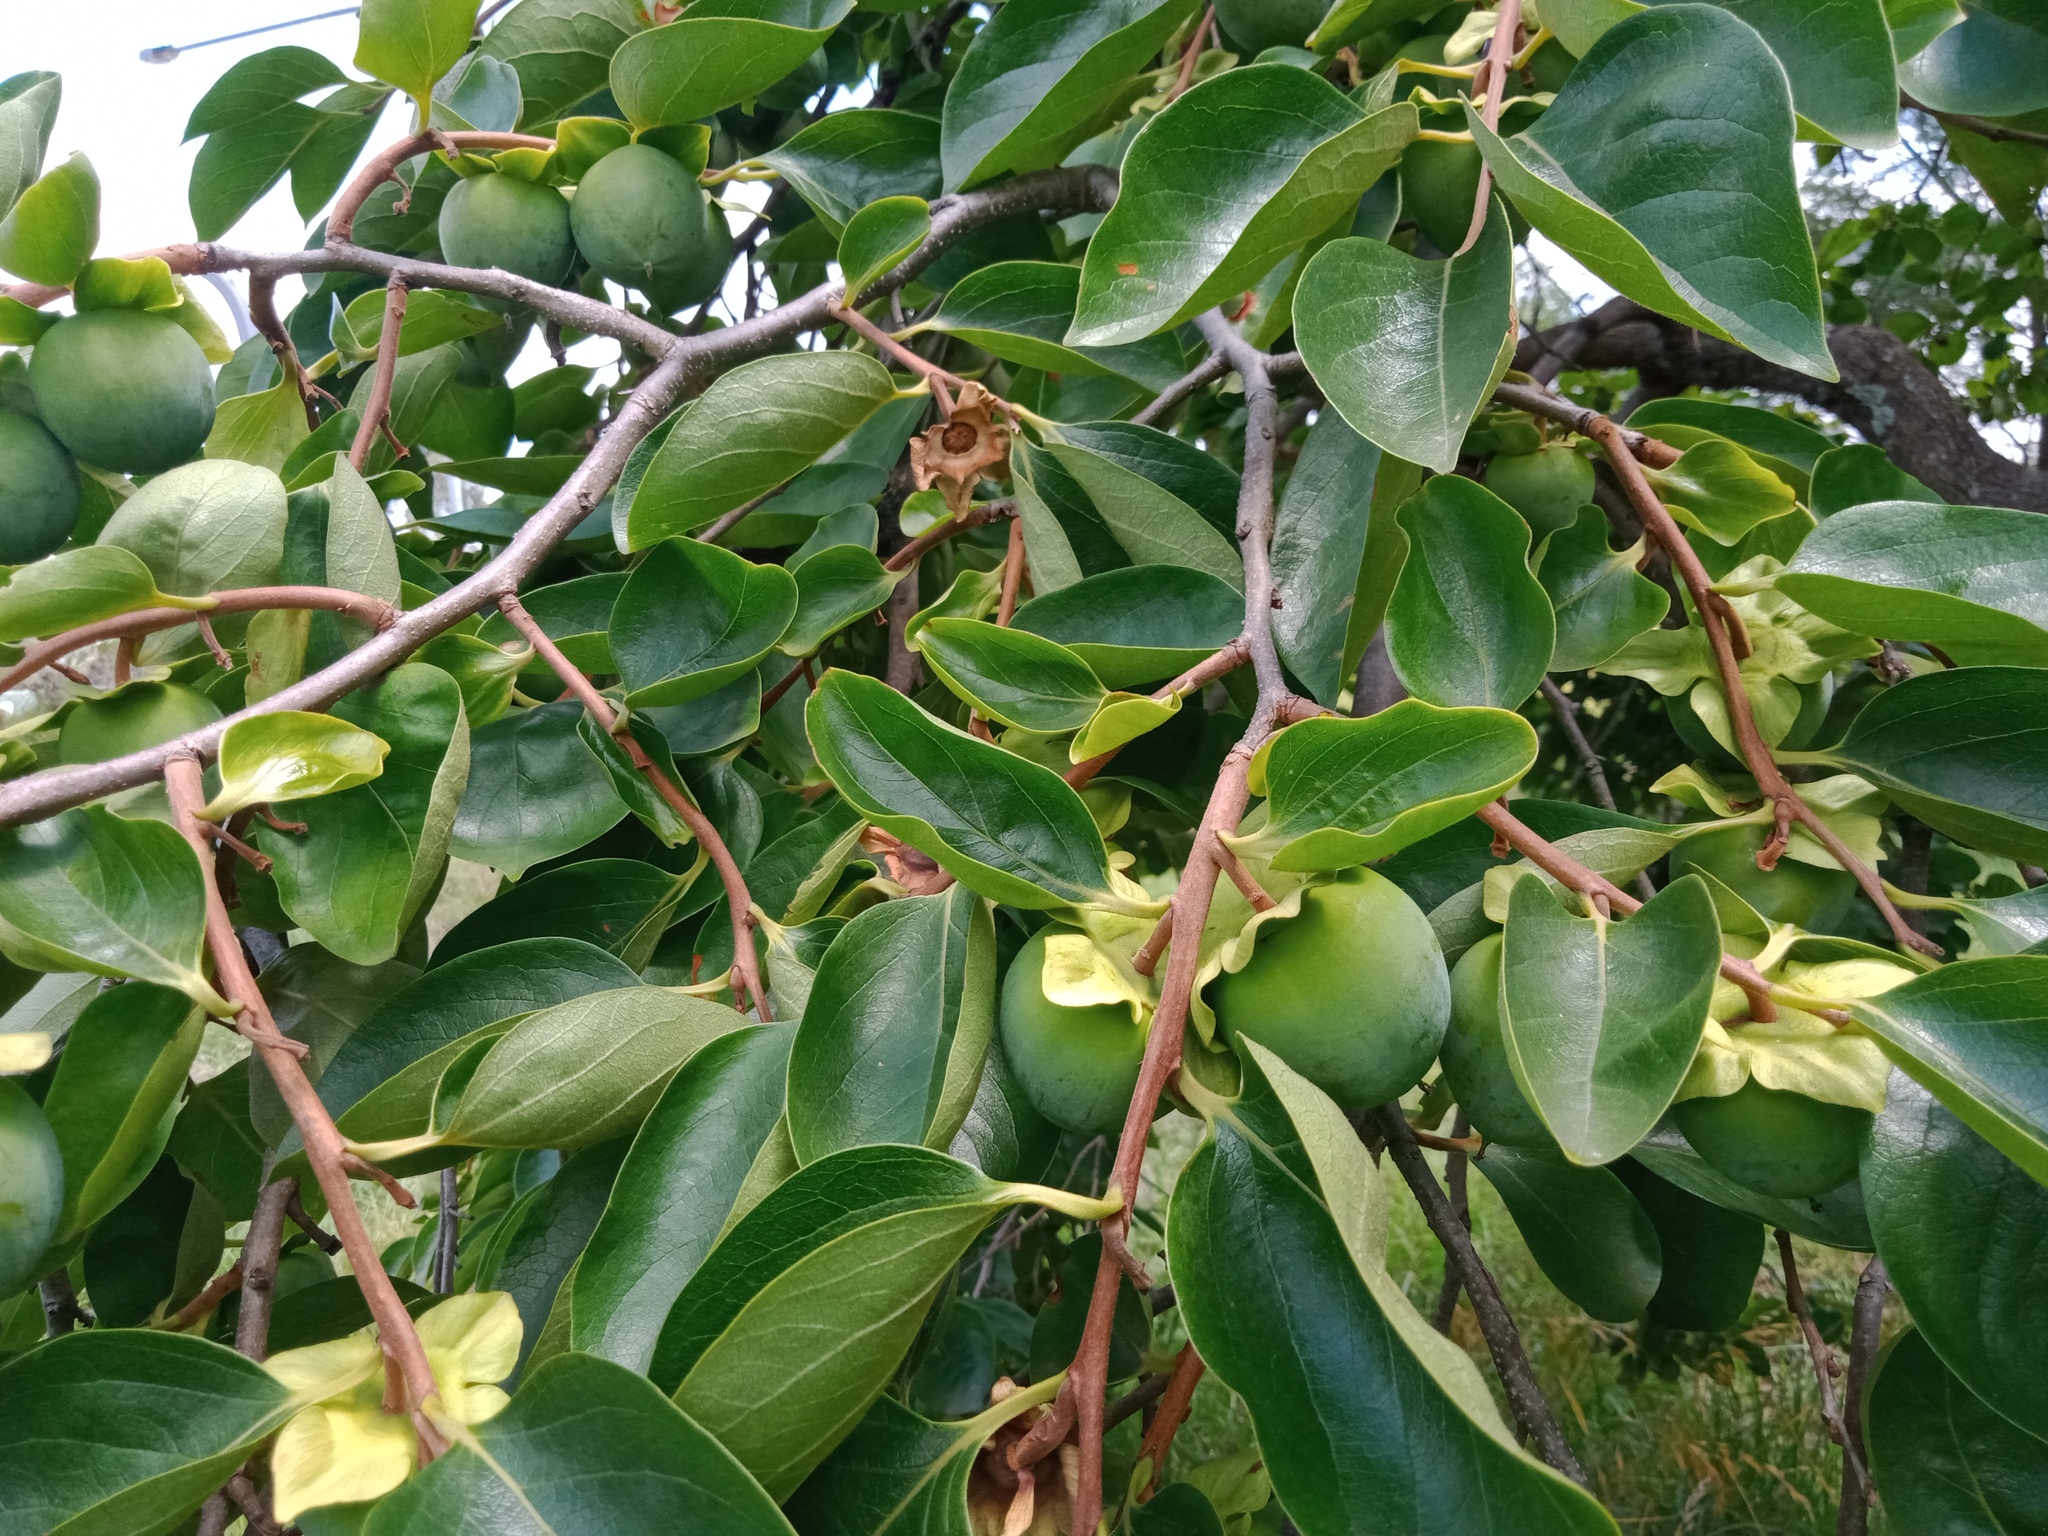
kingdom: Plantae
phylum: Tracheophyta
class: Magnoliopsida
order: Ericales
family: Ebenaceae
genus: Diospyros
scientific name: Diospyros kaki
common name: Persimmon
